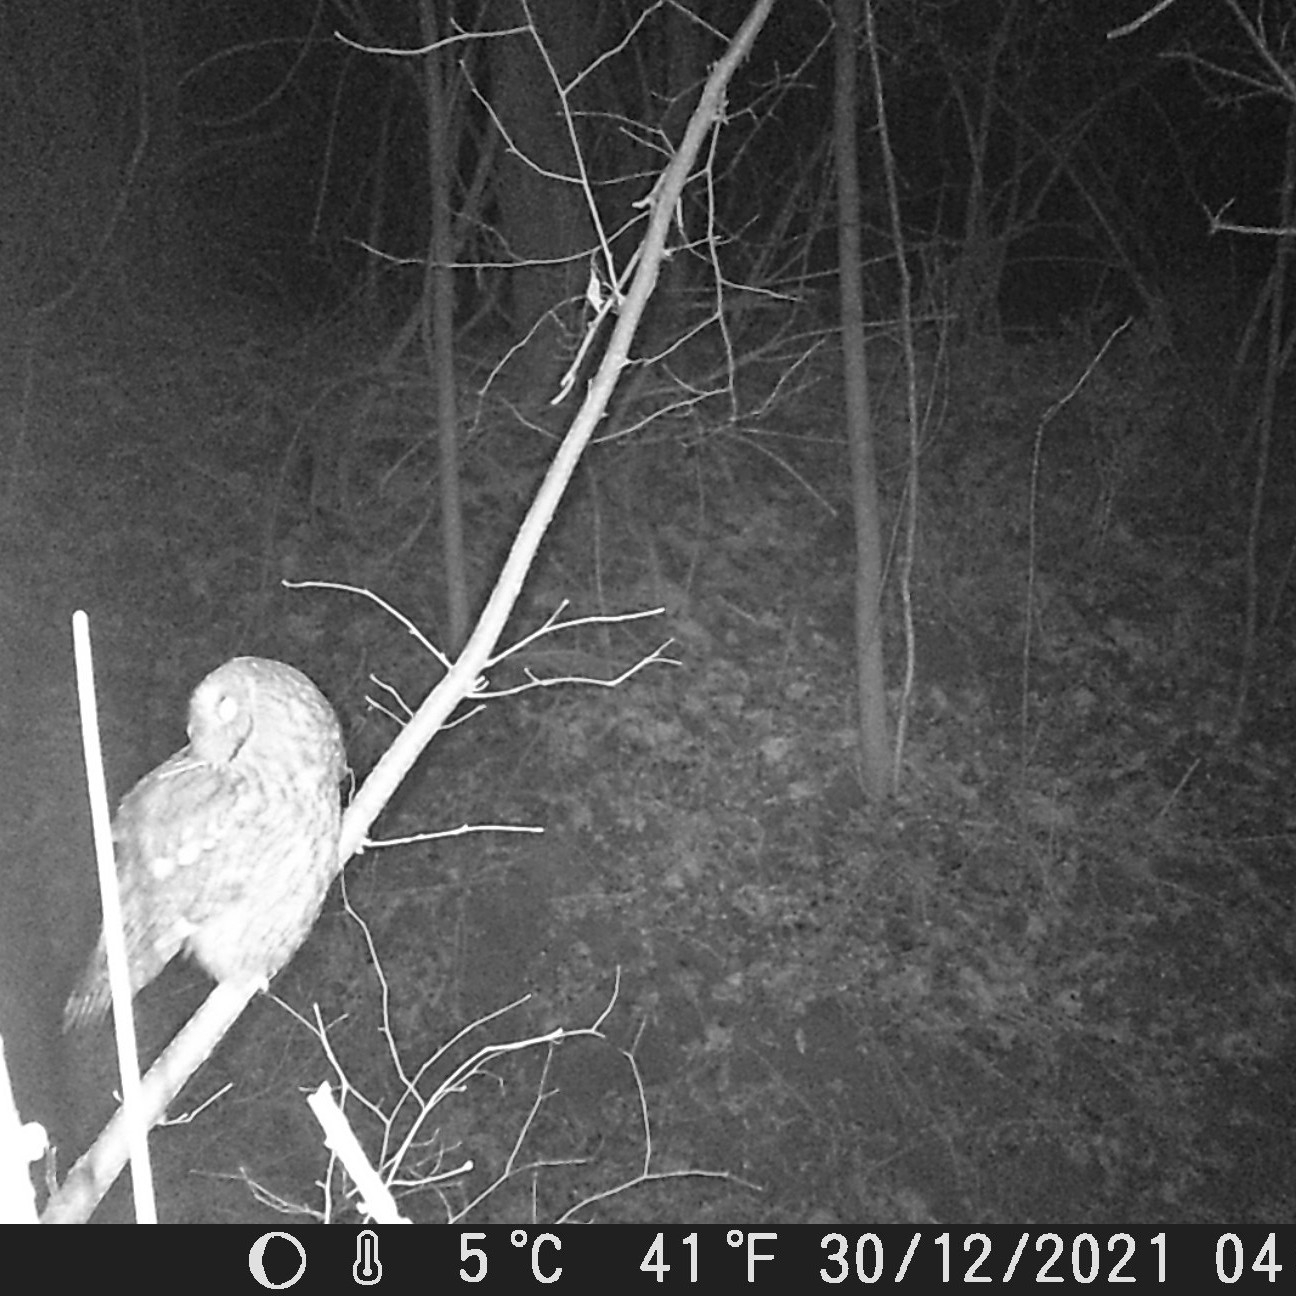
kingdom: Animalia
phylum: Chordata
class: Aves
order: Strigiformes
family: Strigidae
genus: Strix
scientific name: Strix aluco
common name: Tawny owl
